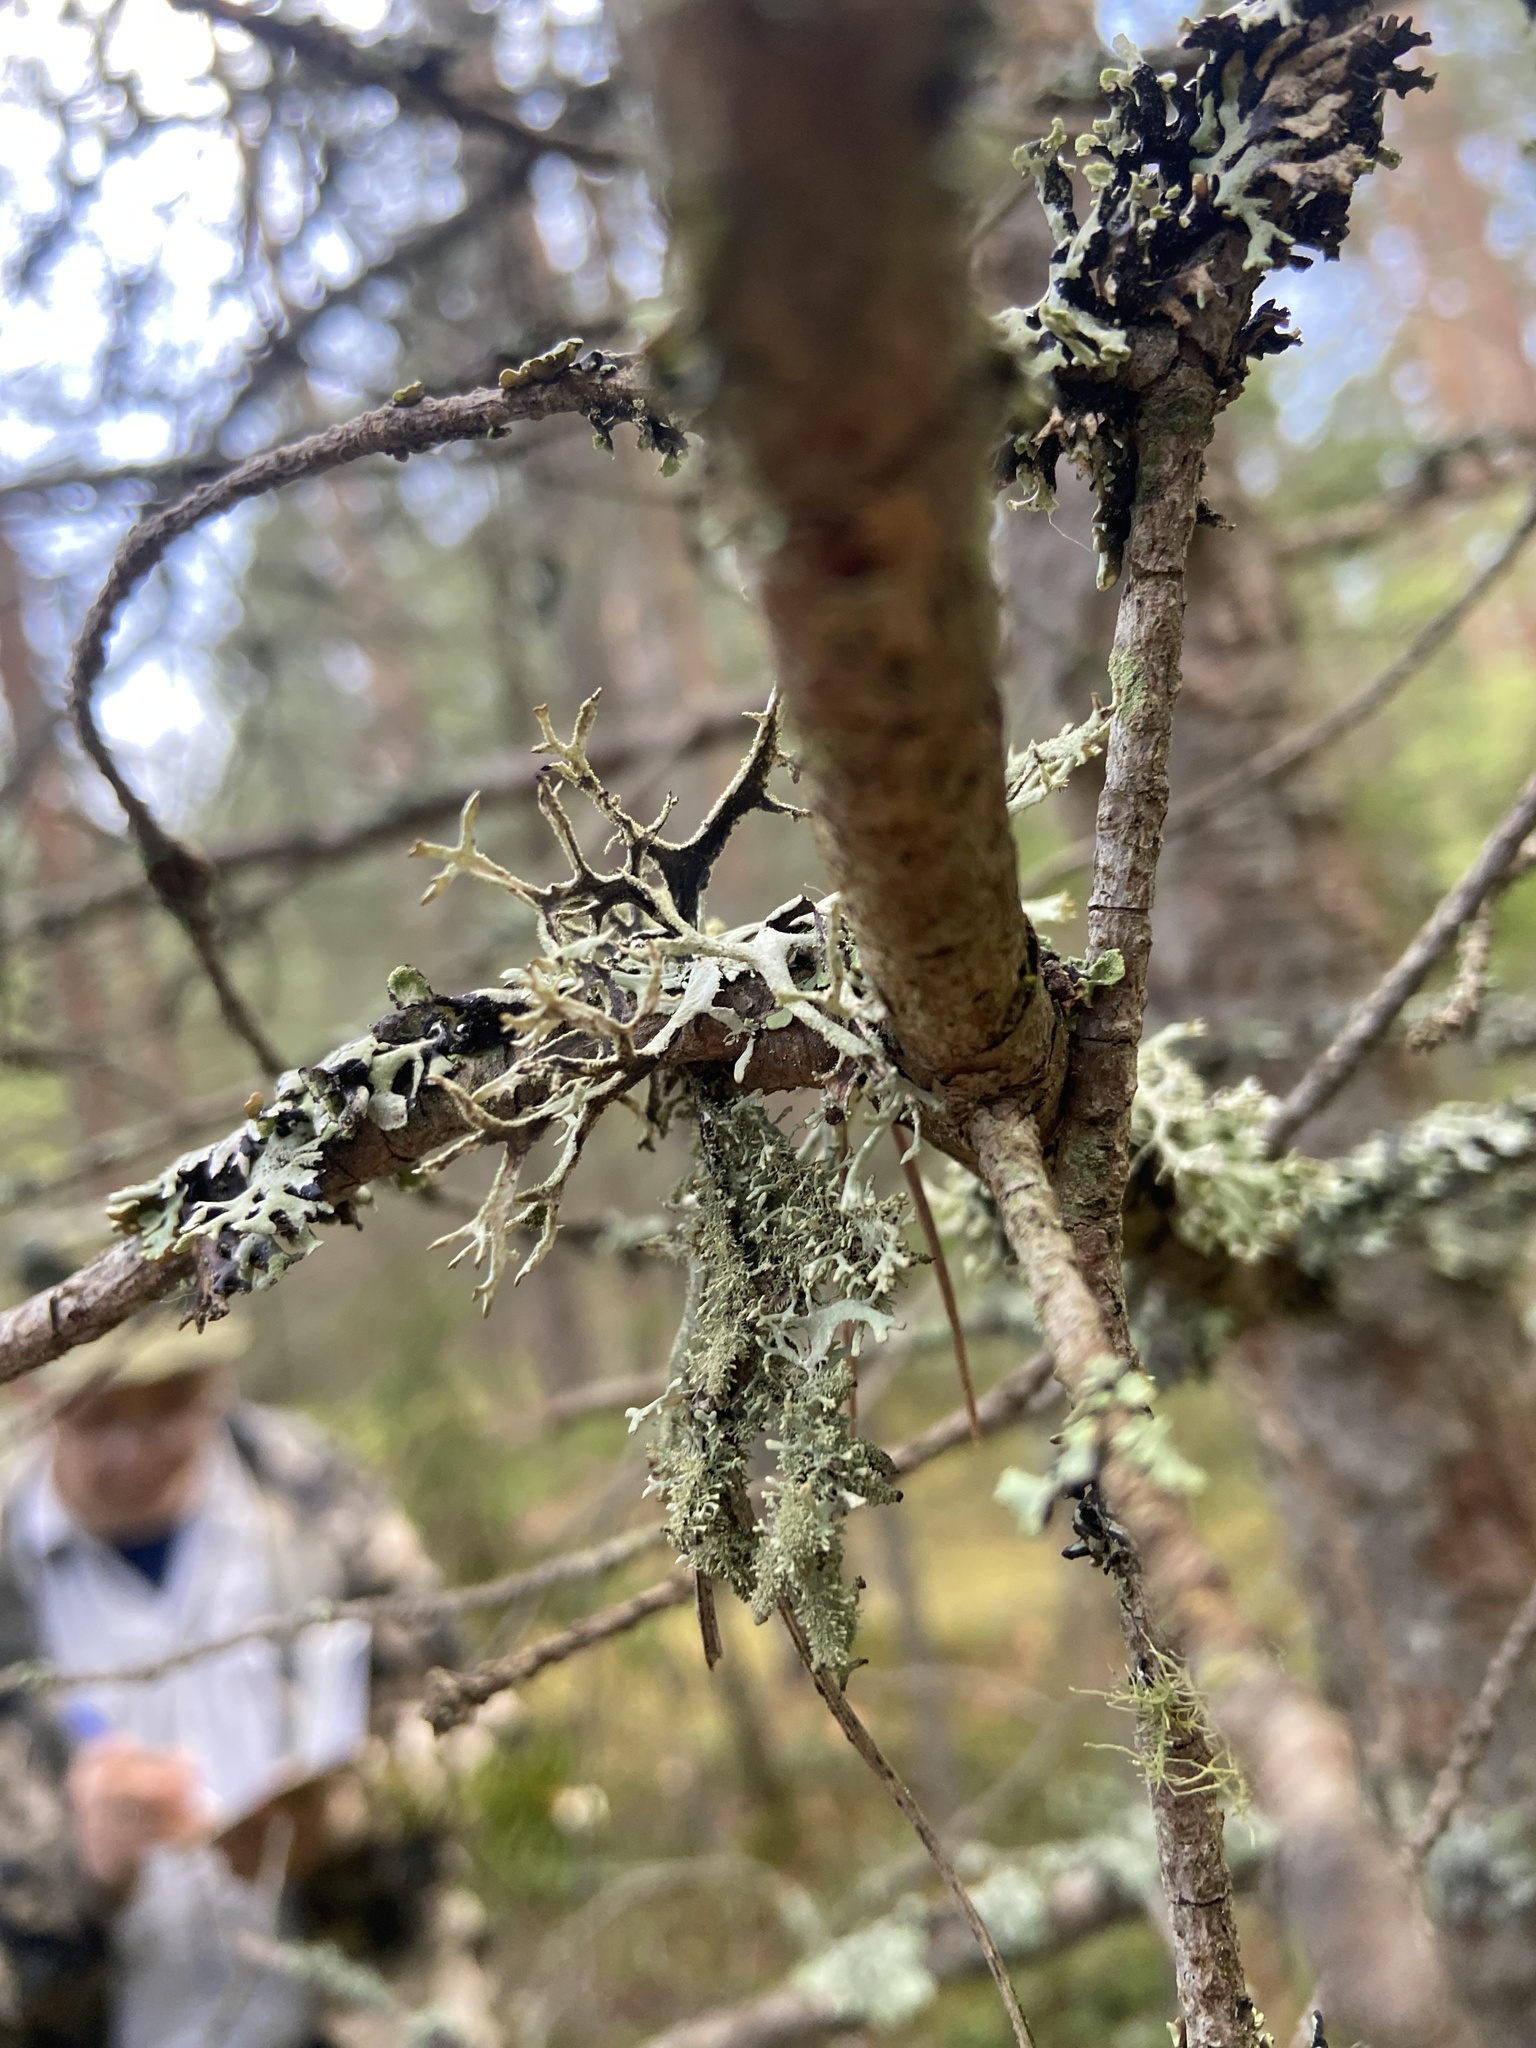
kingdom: Fungi
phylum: Ascomycota
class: Lecanoromycetes
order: Lecanorales
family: Parmeliaceae
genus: Pseudevernia
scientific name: Pseudevernia furfuracea
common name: Tree moss
